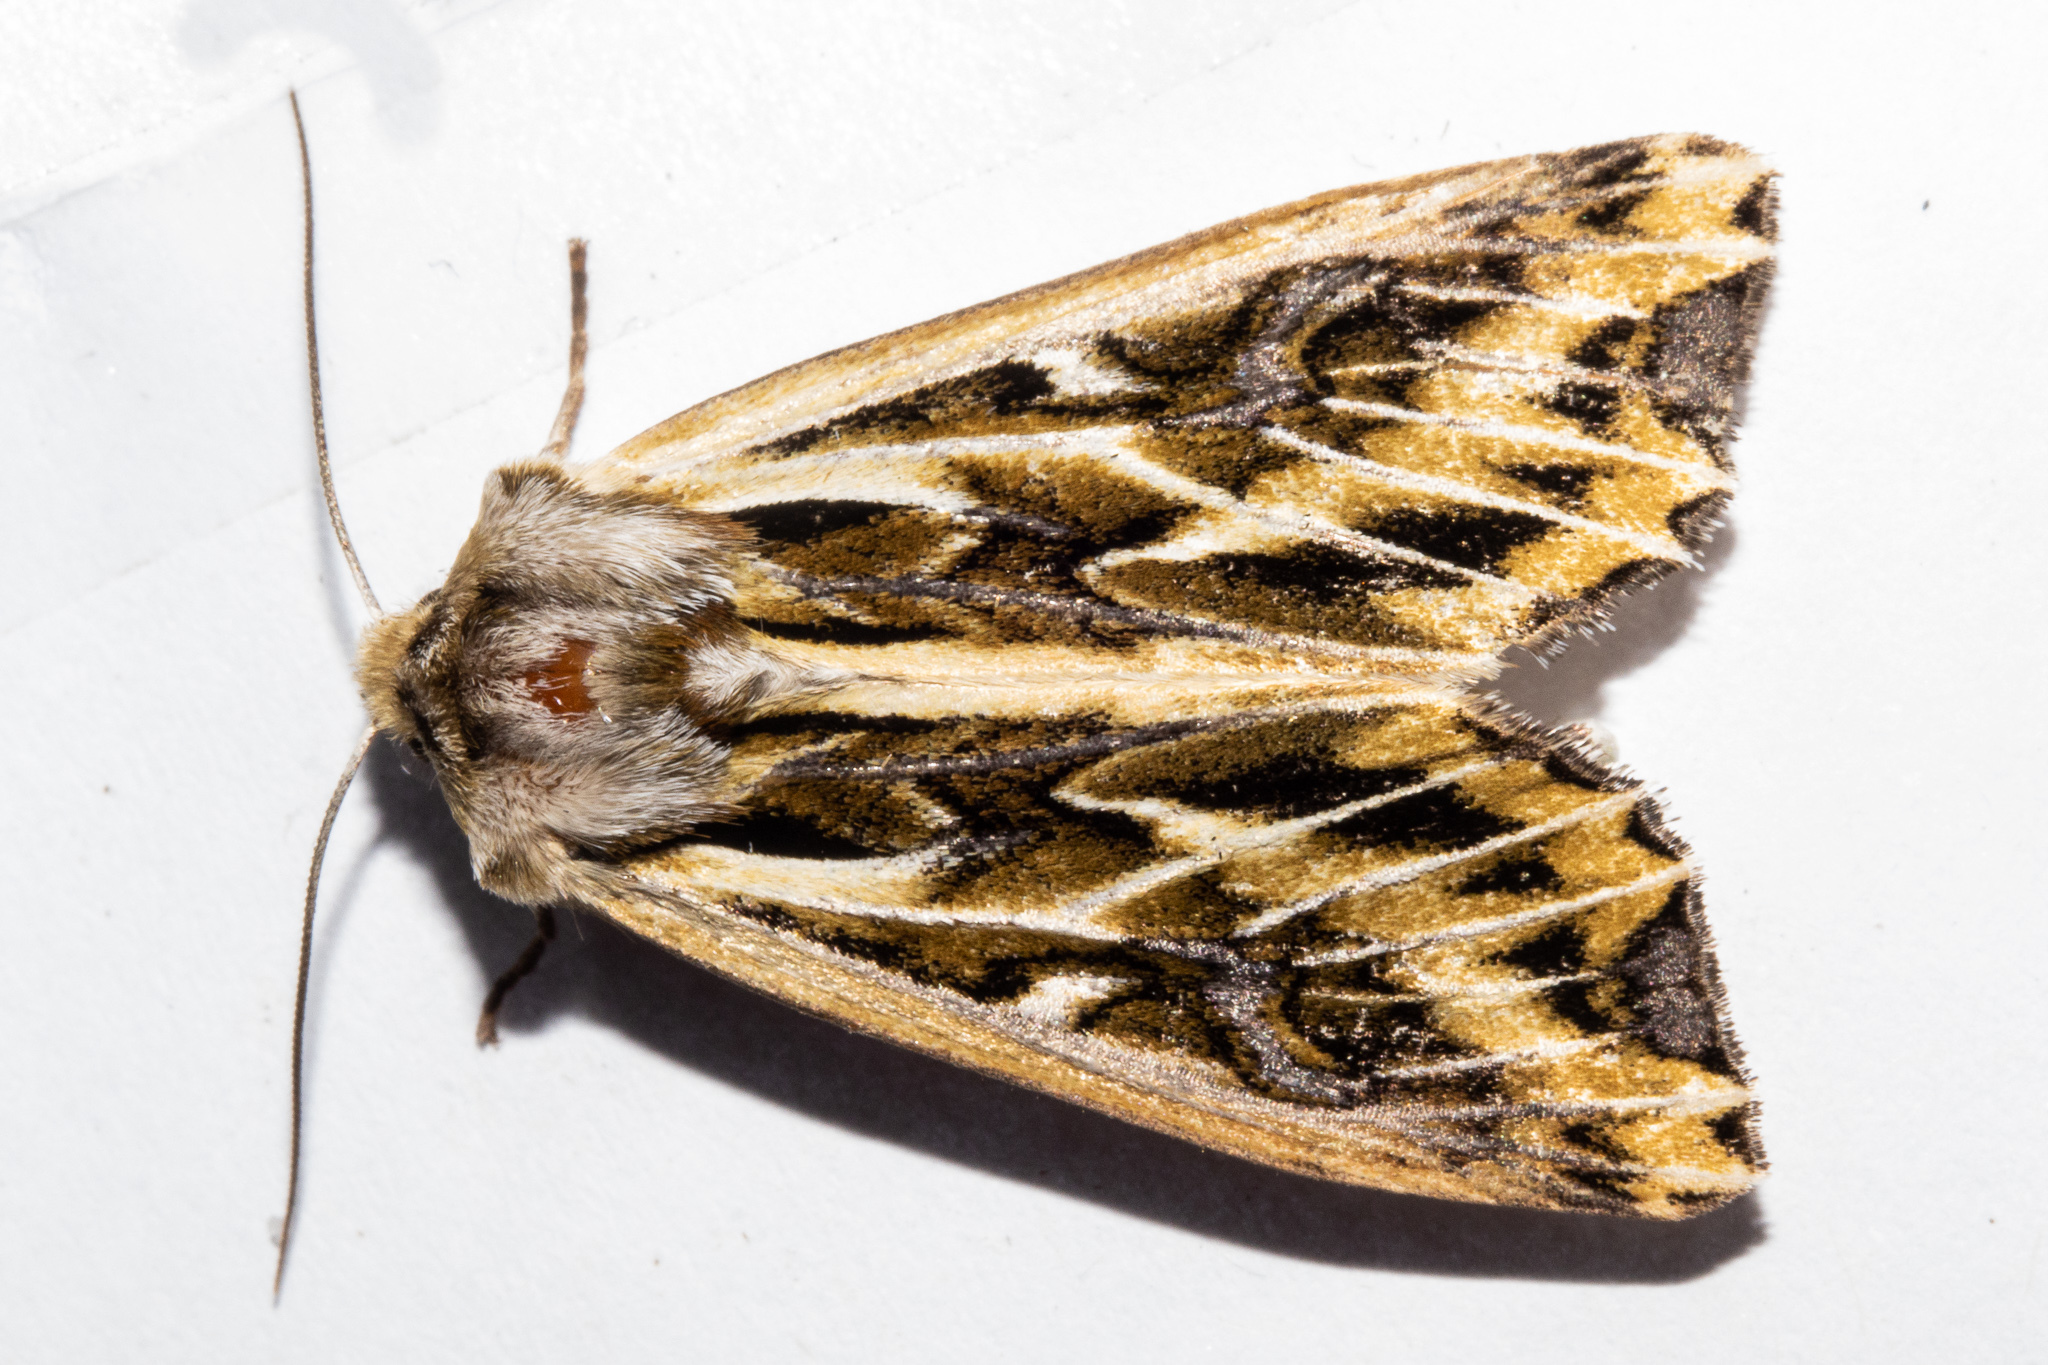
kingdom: Animalia
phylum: Arthropoda
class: Insecta
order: Lepidoptera
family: Noctuidae
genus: Ichneutica
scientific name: Ichneutica
